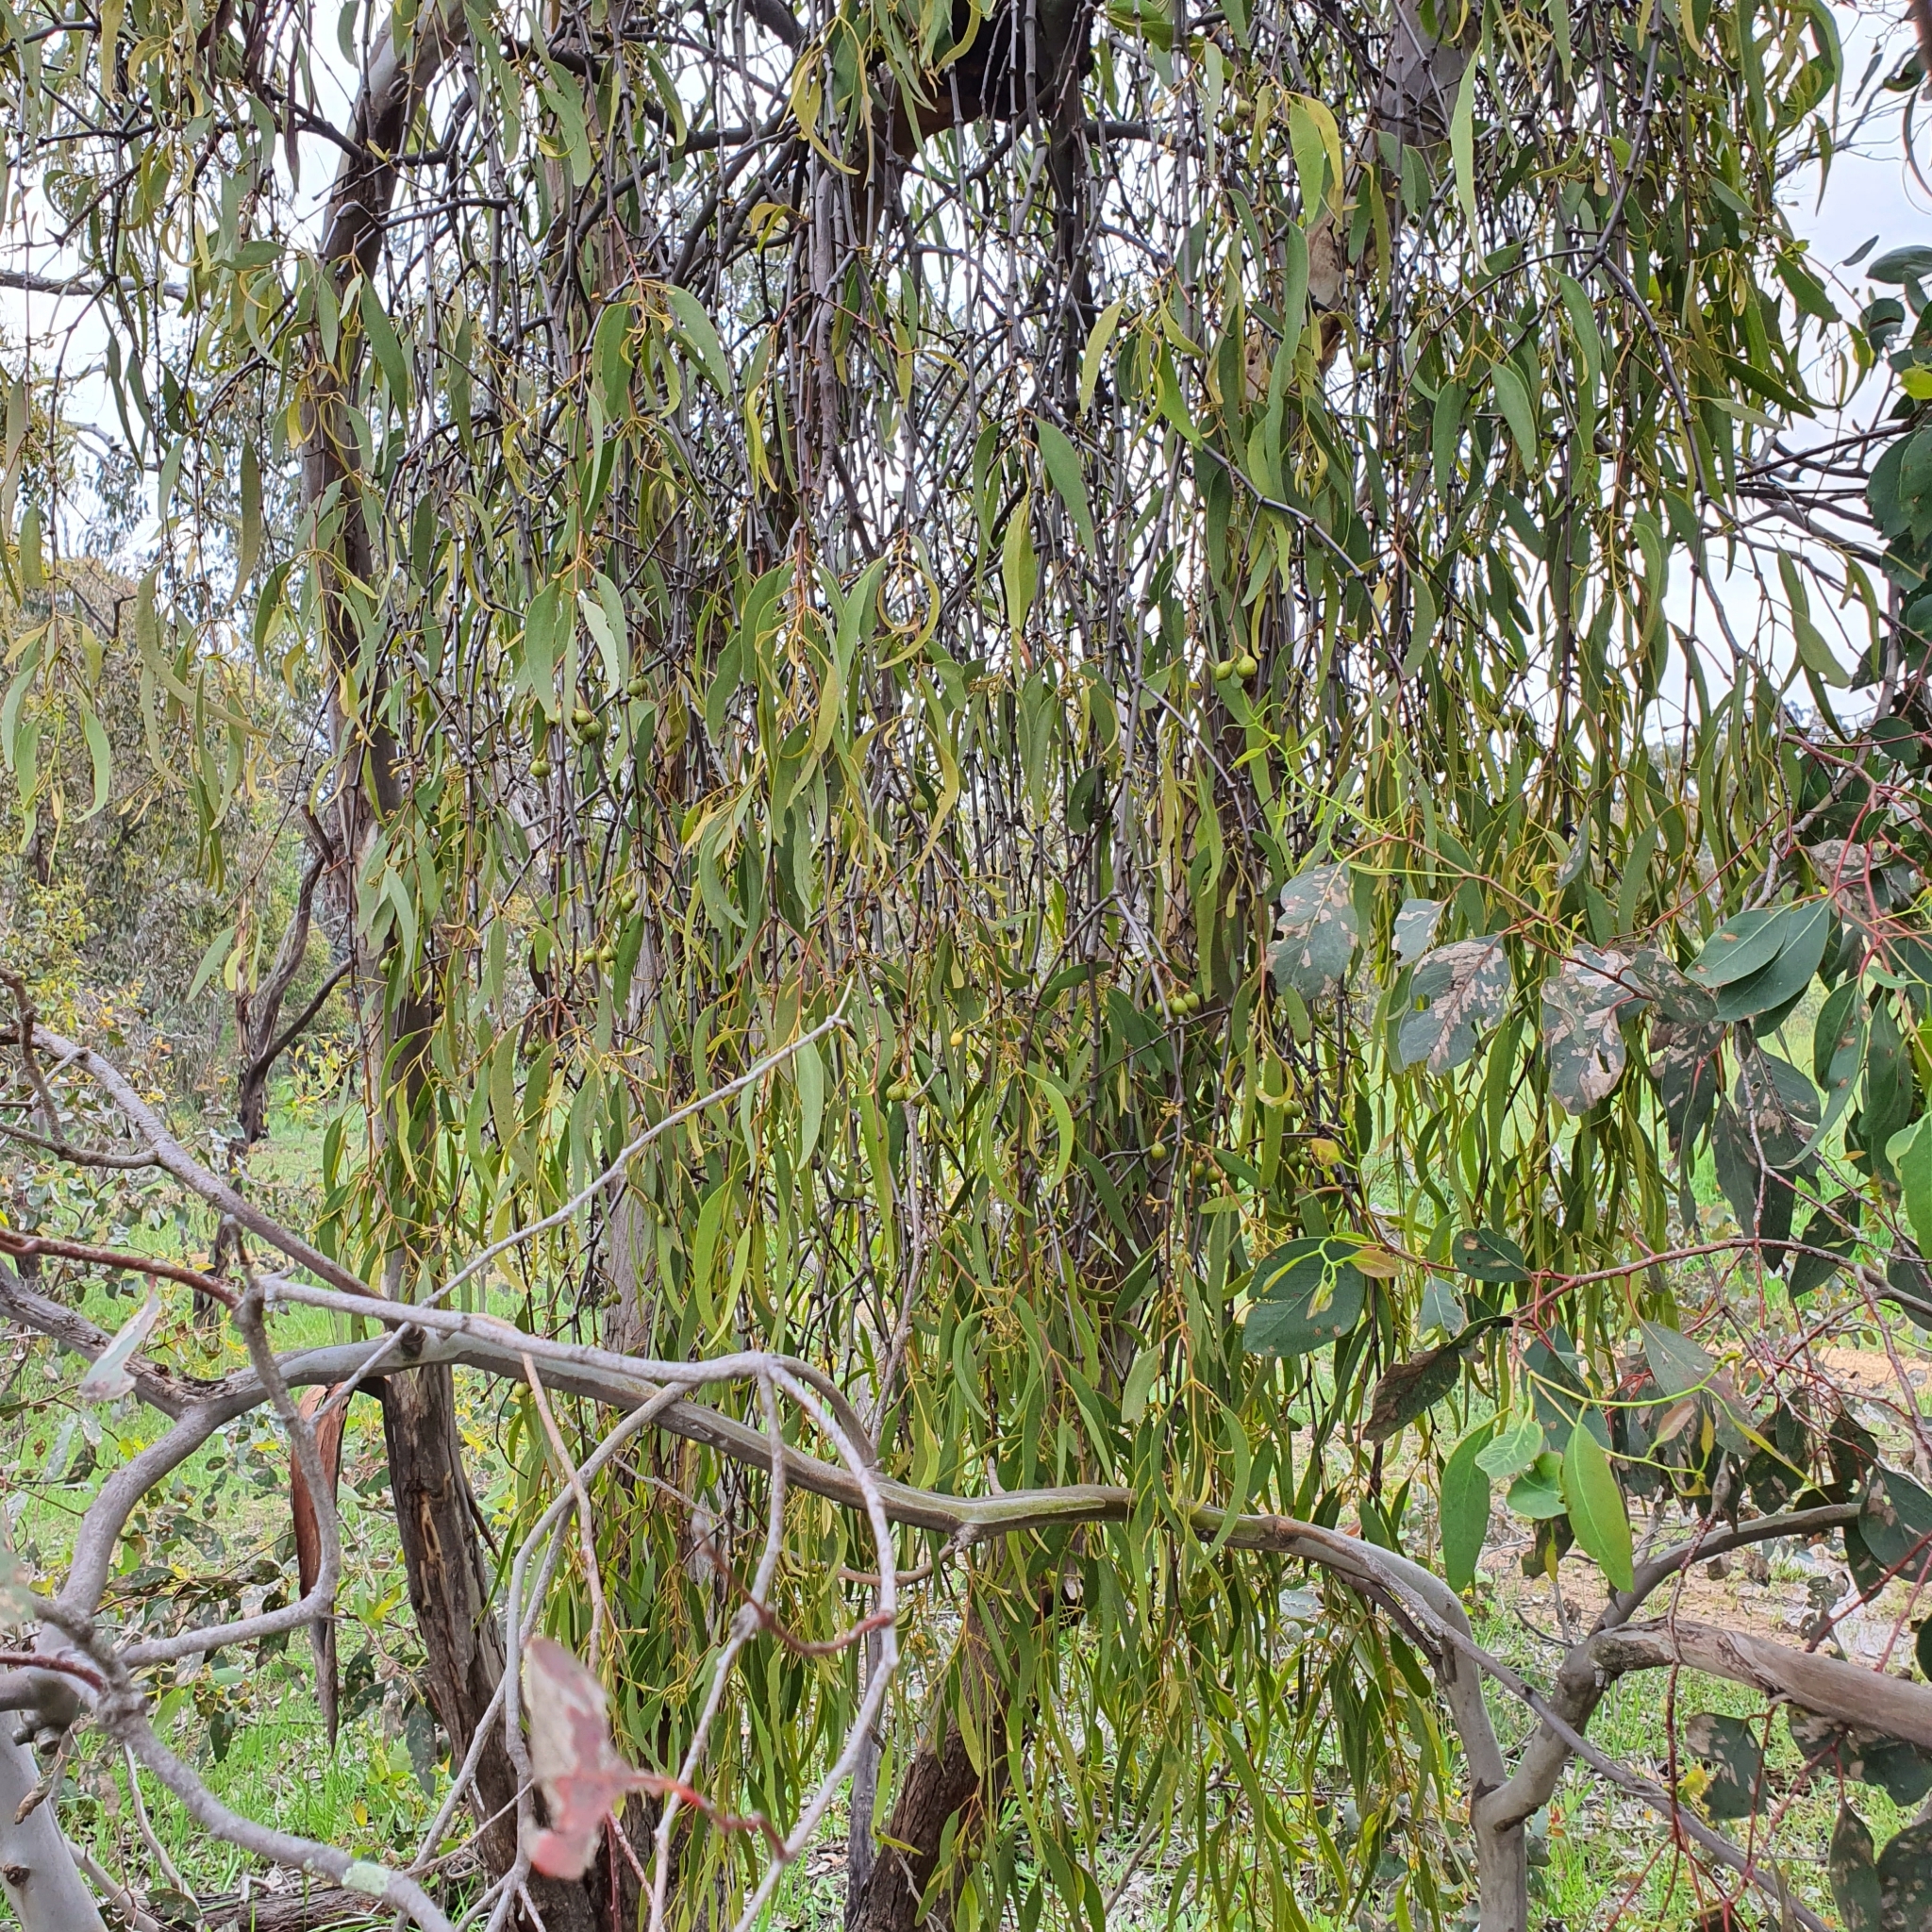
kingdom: Plantae
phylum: Tracheophyta
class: Magnoliopsida
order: Santalales
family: Loranthaceae
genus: Amyema
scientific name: Amyema miquelii
